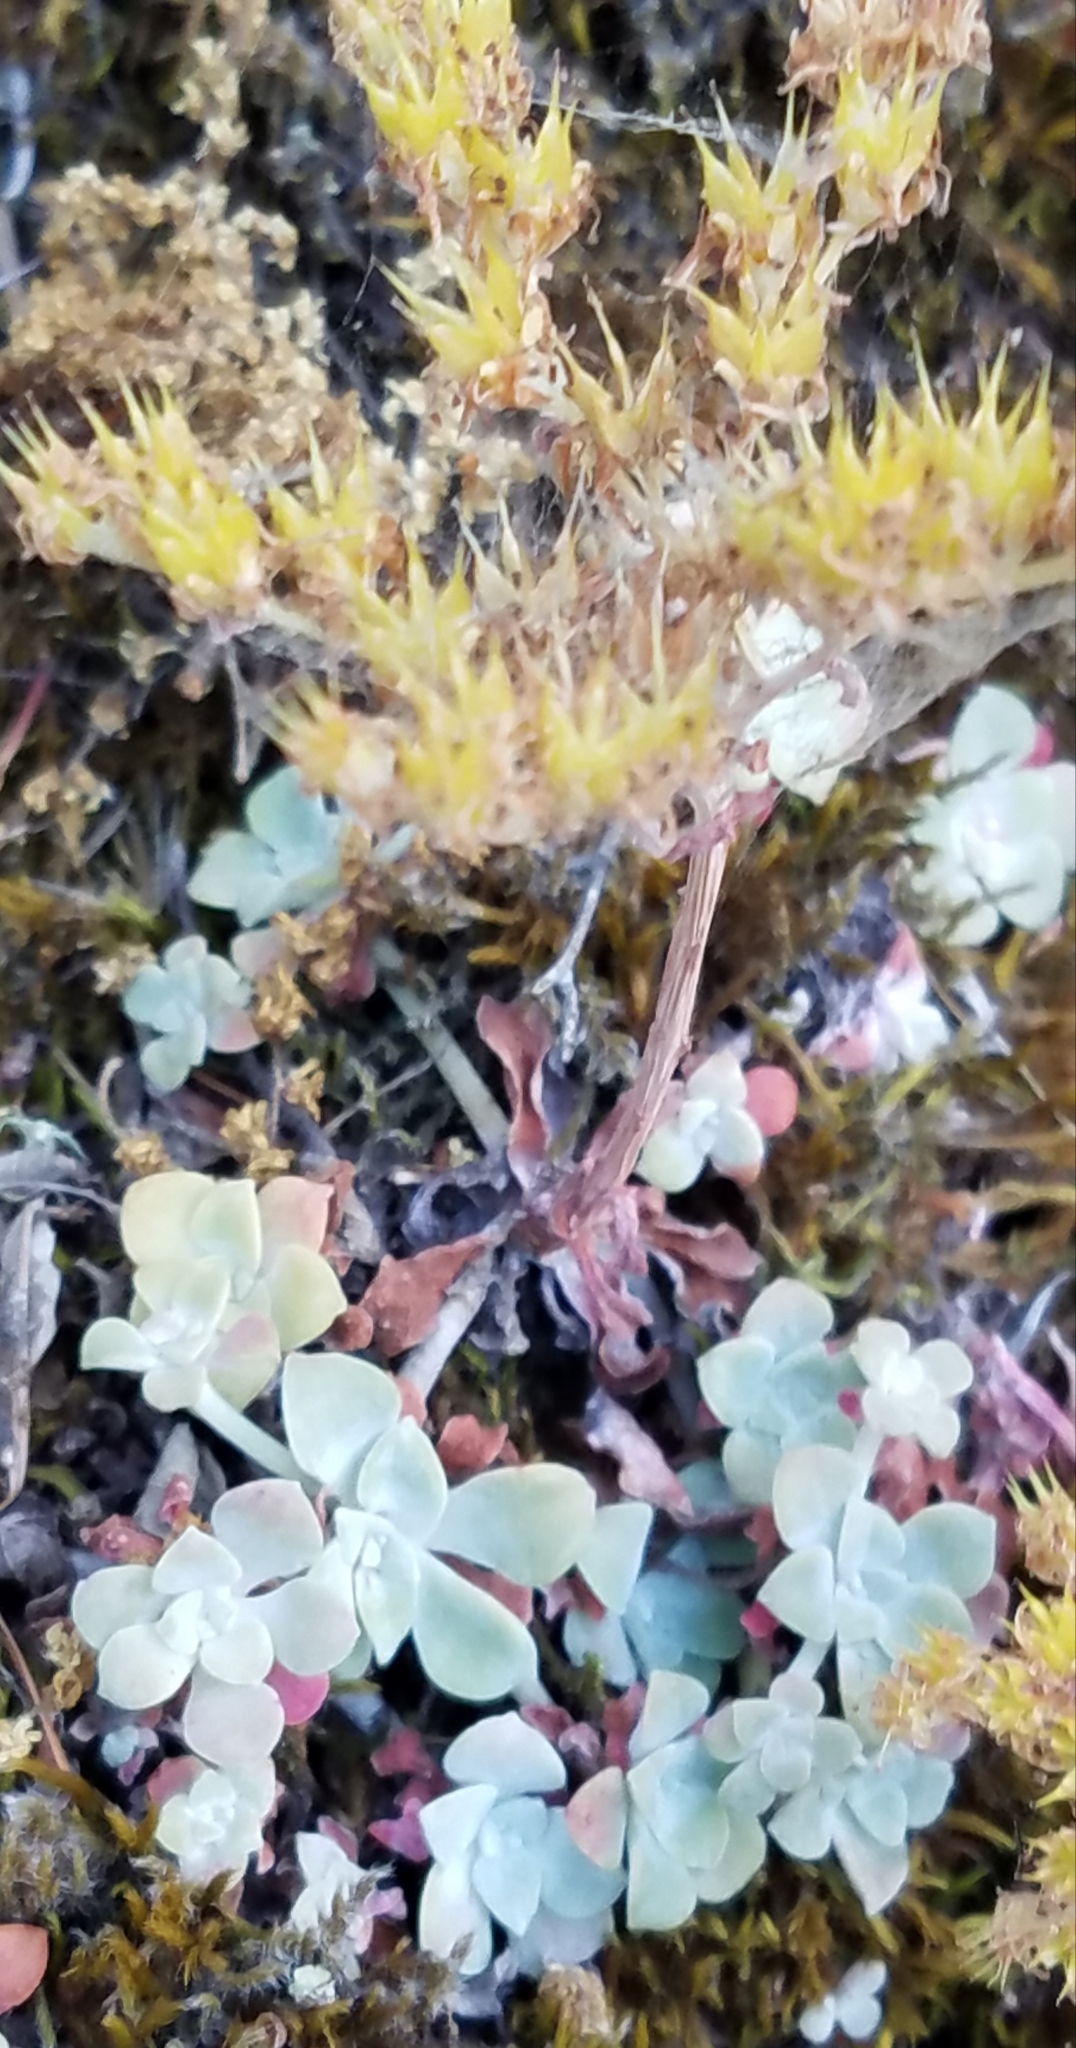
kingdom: Plantae
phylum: Tracheophyta
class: Magnoliopsida
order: Saxifragales
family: Crassulaceae
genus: Sedum
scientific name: Sedum spathulifolium
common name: Colorado stonecrop
